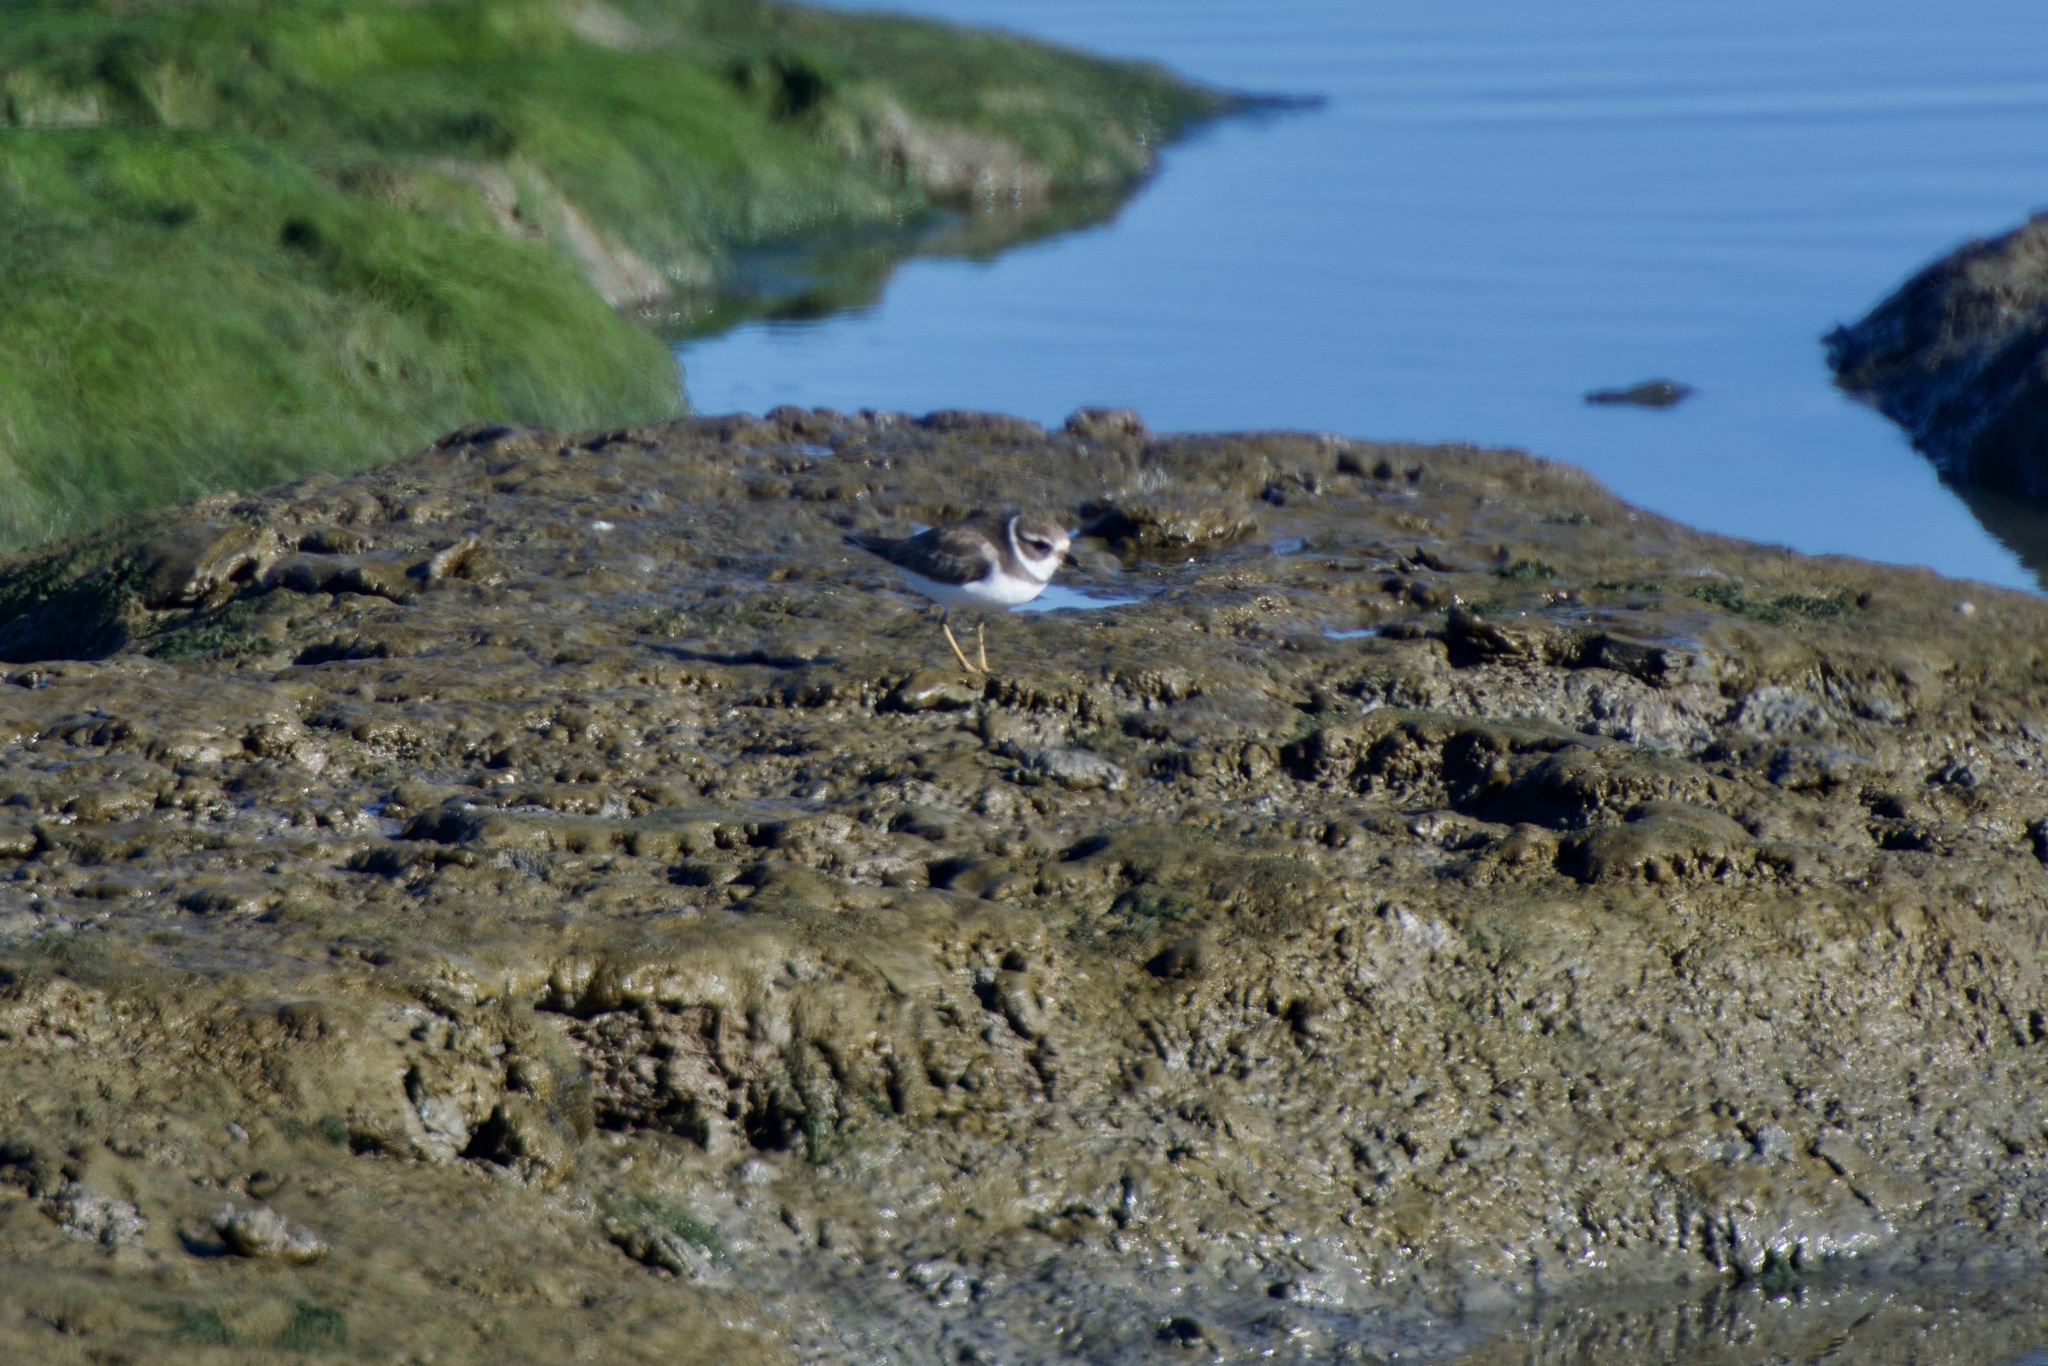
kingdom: Animalia
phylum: Chordata
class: Aves
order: Charadriiformes
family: Charadriidae
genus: Charadrius
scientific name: Charadrius semipalmatus
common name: Semipalmated plover
